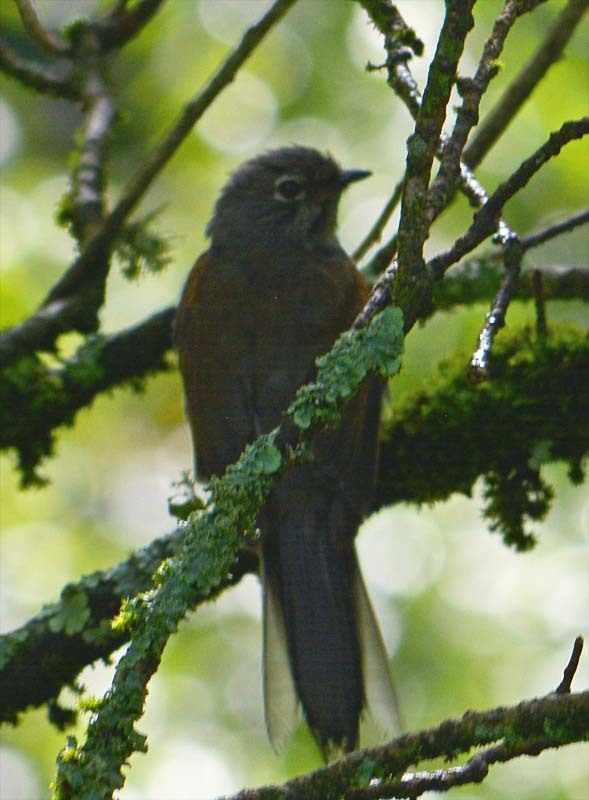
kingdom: Animalia
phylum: Chordata
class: Aves
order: Passeriformes
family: Turdidae
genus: Myadestes
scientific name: Myadestes occidentalis
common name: Brown-backed solitaire
